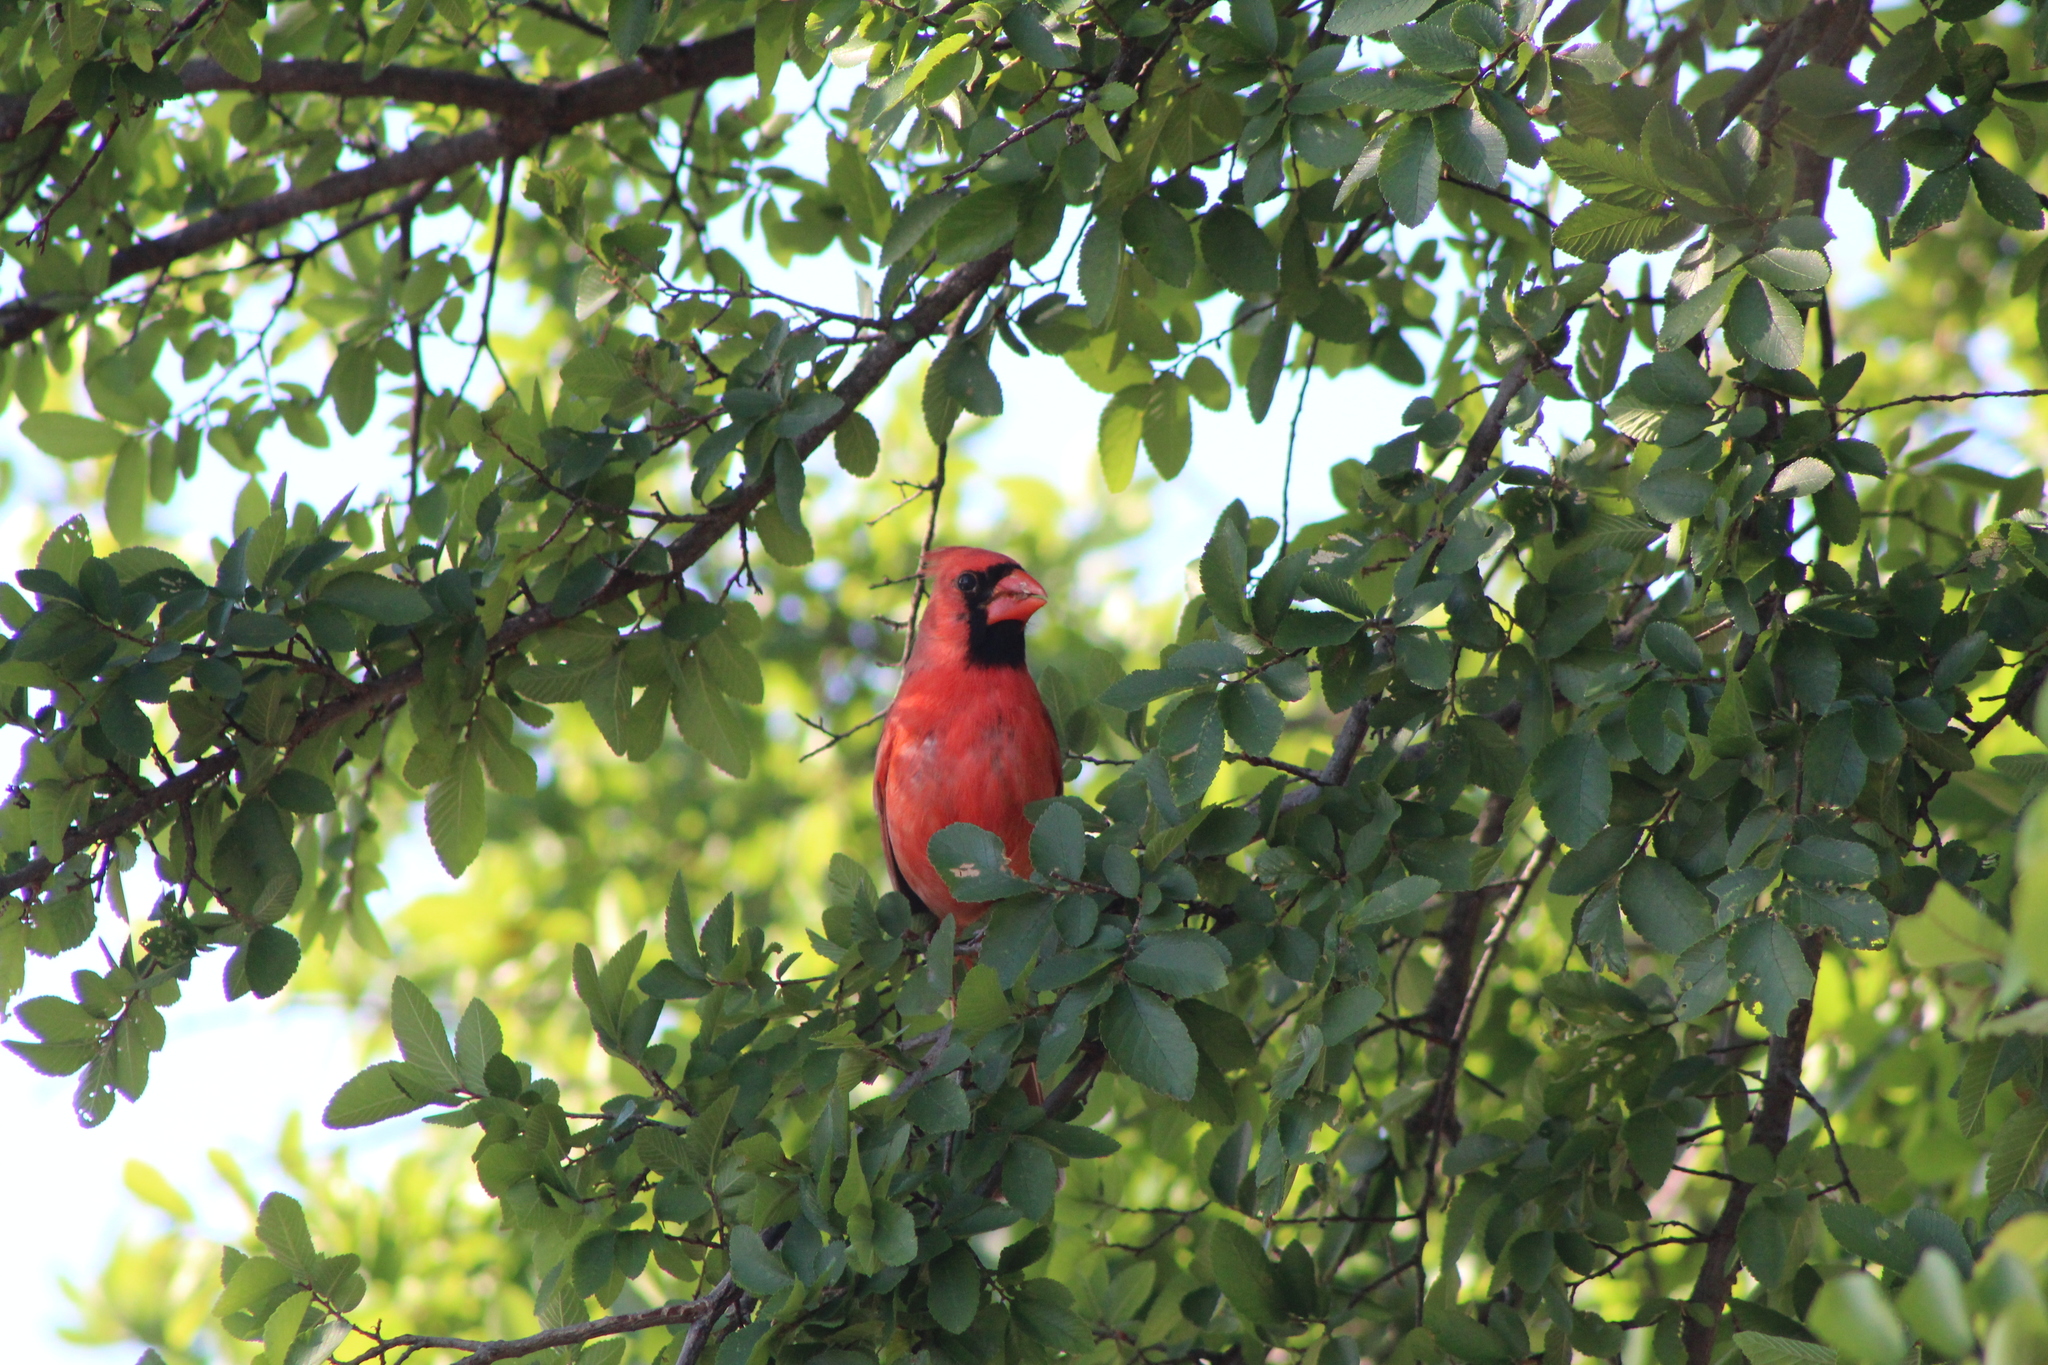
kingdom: Animalia
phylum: Chordata
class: Aves
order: Passeriformes
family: Cardinalidae
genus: Cardinalis
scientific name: Cardinalis cardinalis
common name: Northern cardinal
